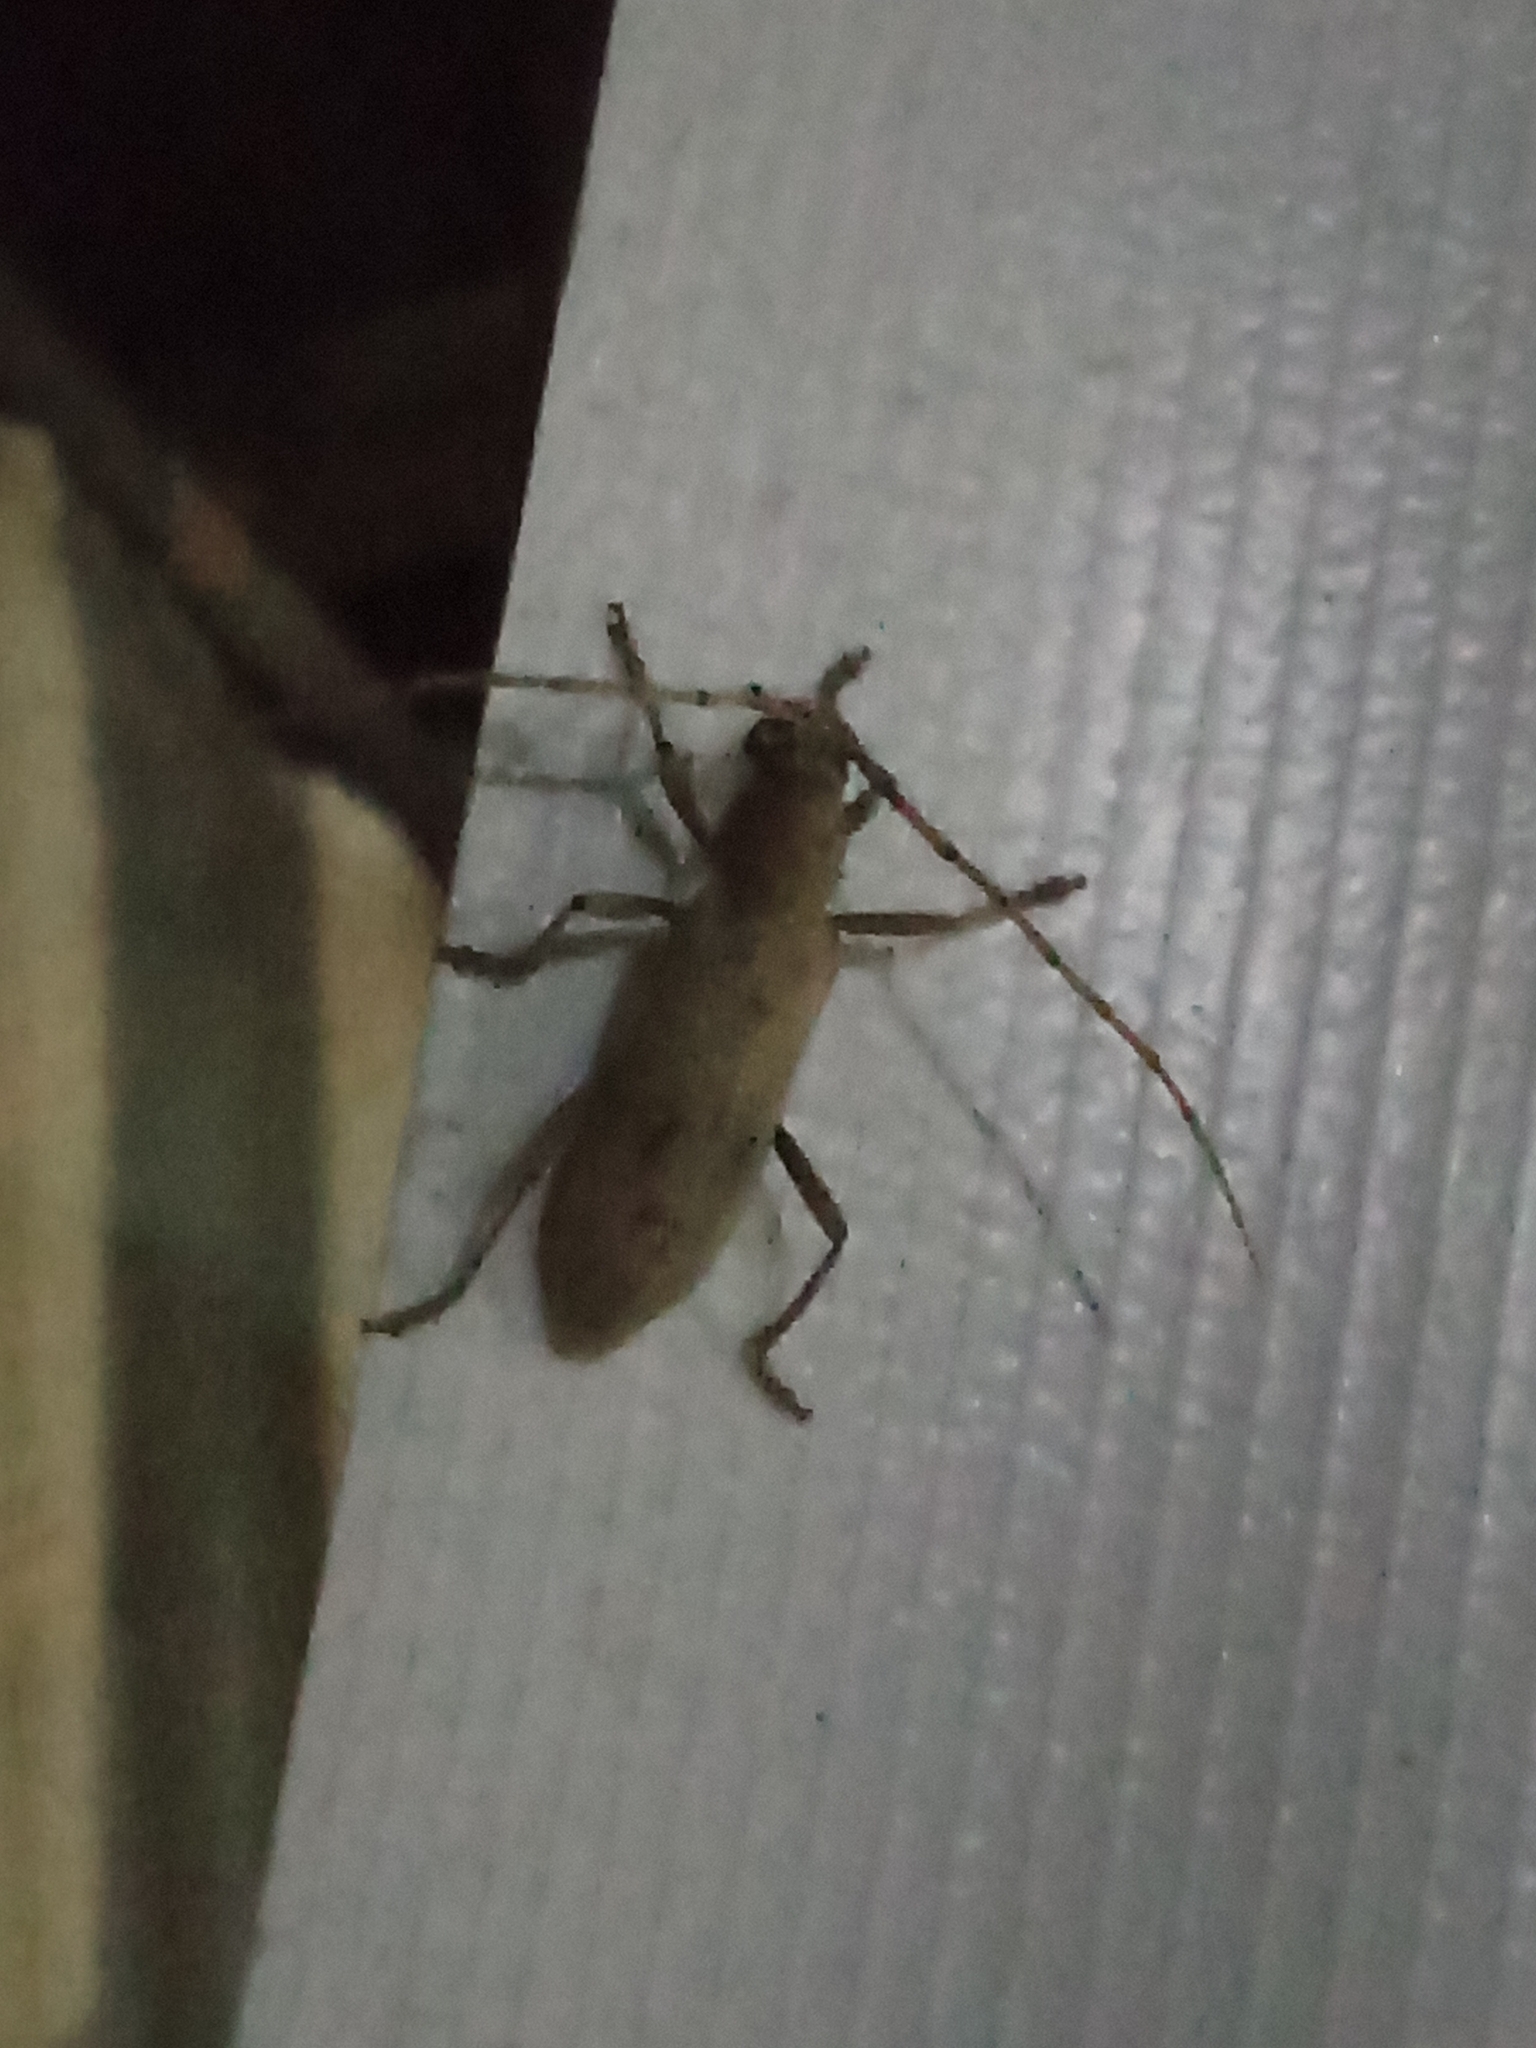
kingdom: Animalia
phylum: Arthropoda
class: Insecta
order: Coleoptera
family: Cerambycidae
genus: Eburia
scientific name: Eburia porulosa
